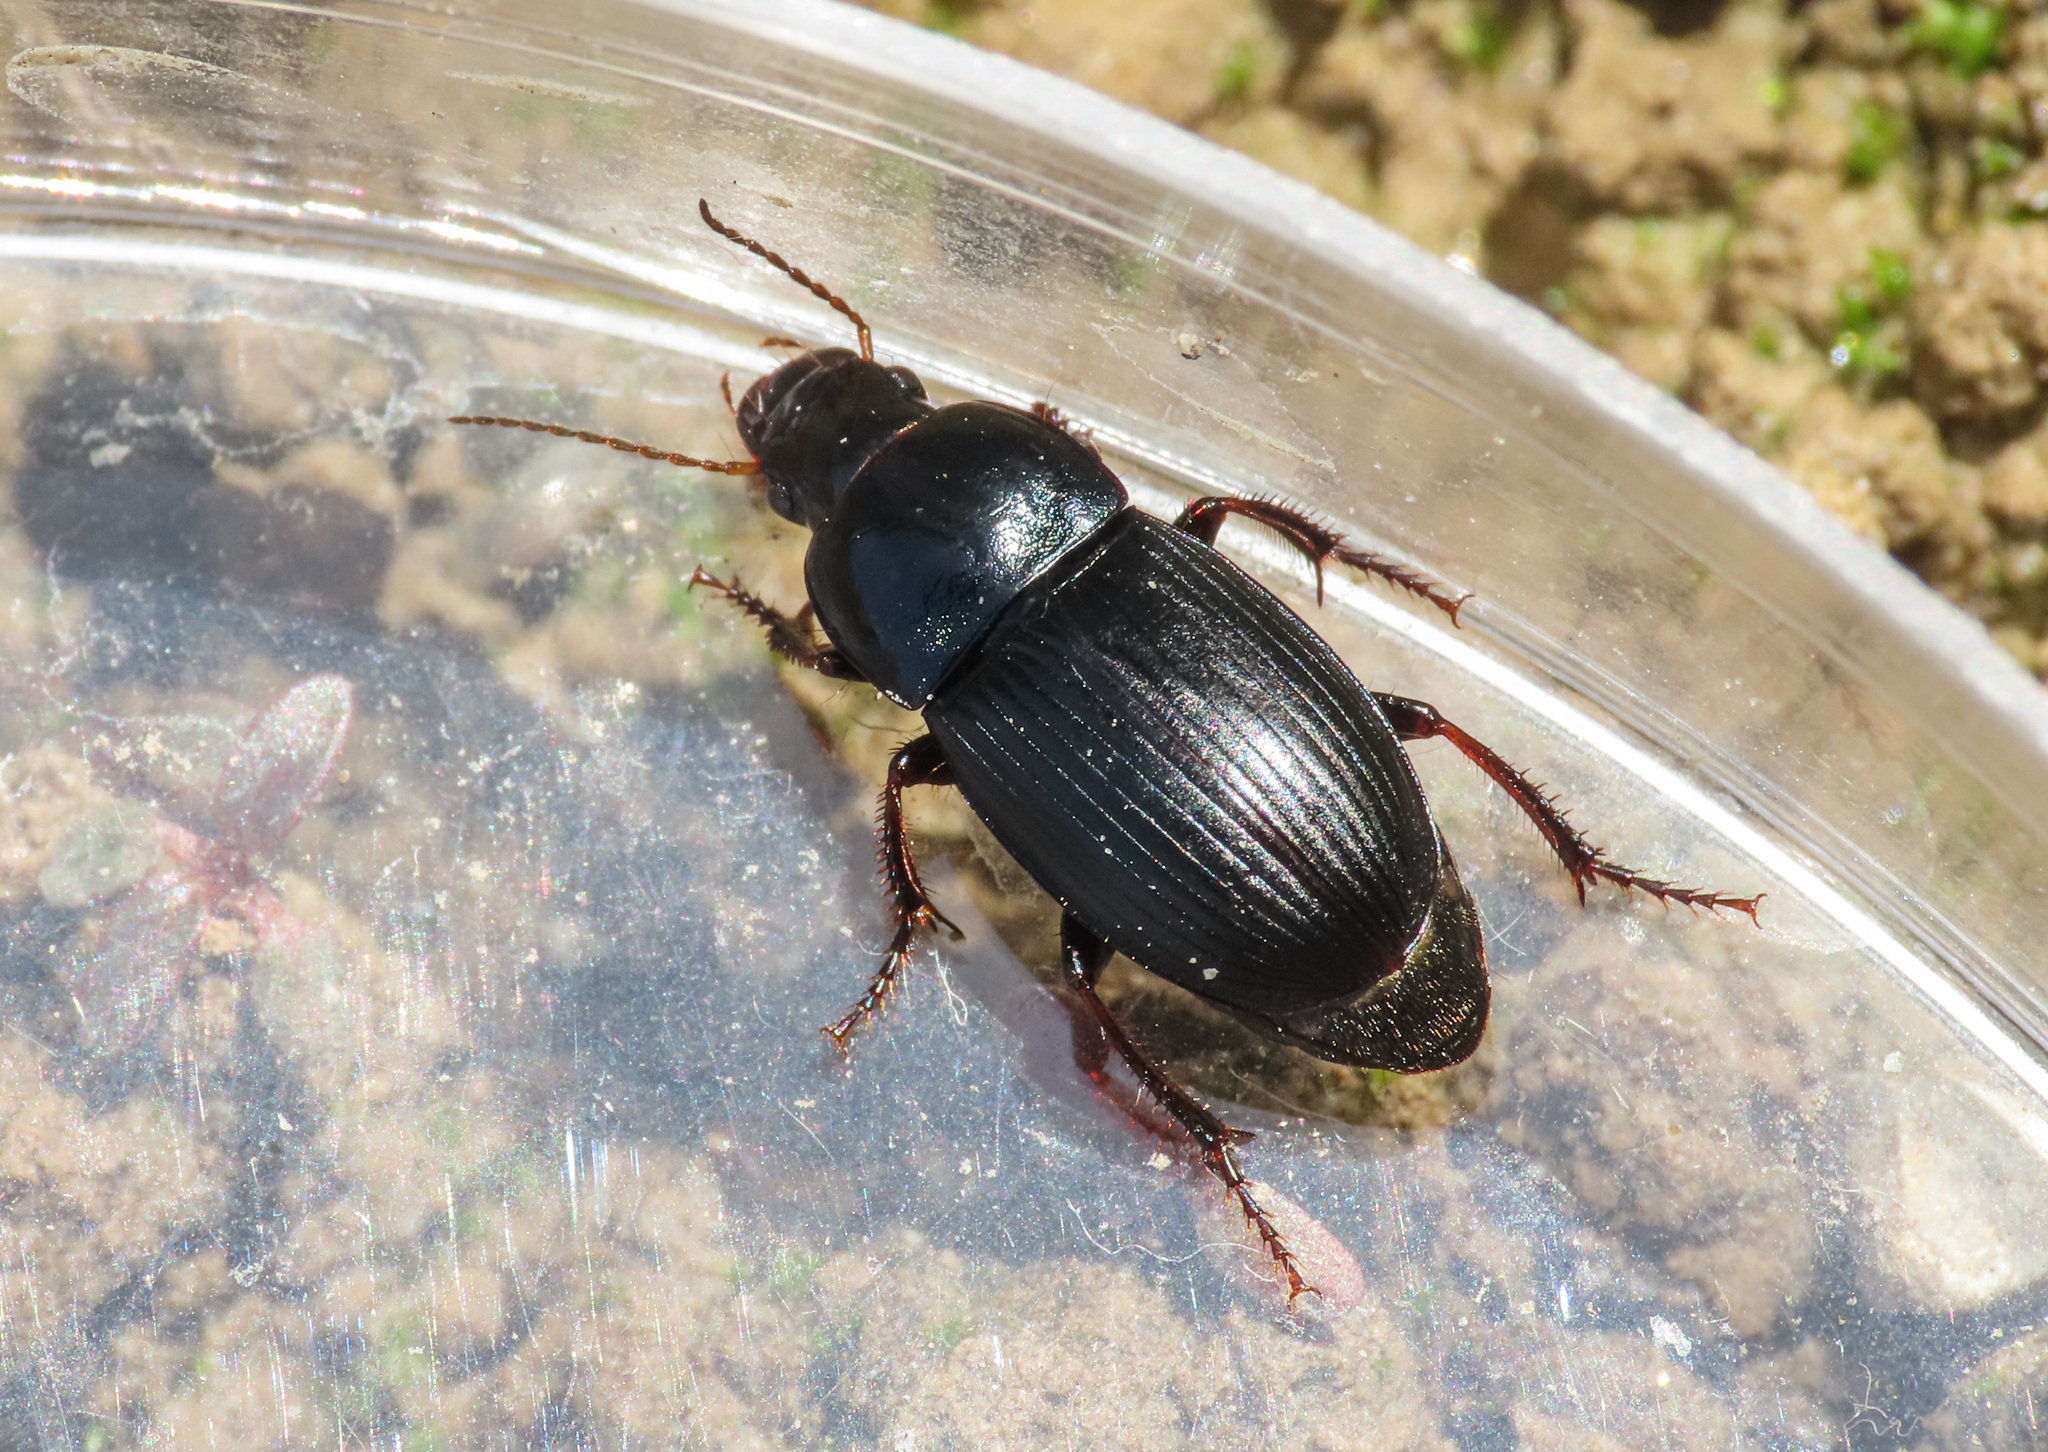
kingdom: Animalia
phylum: Arthropoda
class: Insecta
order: Coleoptera
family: Carabidae
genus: Harpalus
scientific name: Harpalus dimidiatus
